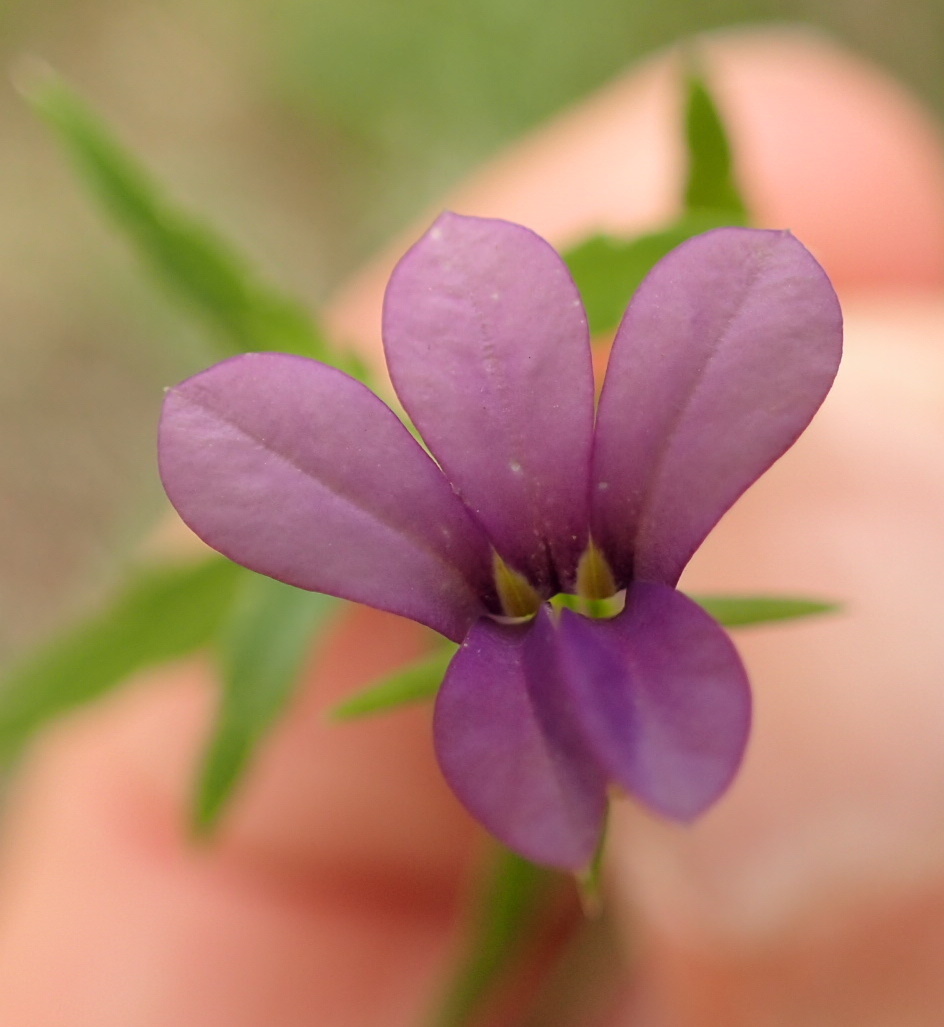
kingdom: Plantae
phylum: Tracheophyta
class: Magnoliopsida
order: Asterales
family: Campanulaceae
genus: Monopsis
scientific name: Monopsis stellarioides
